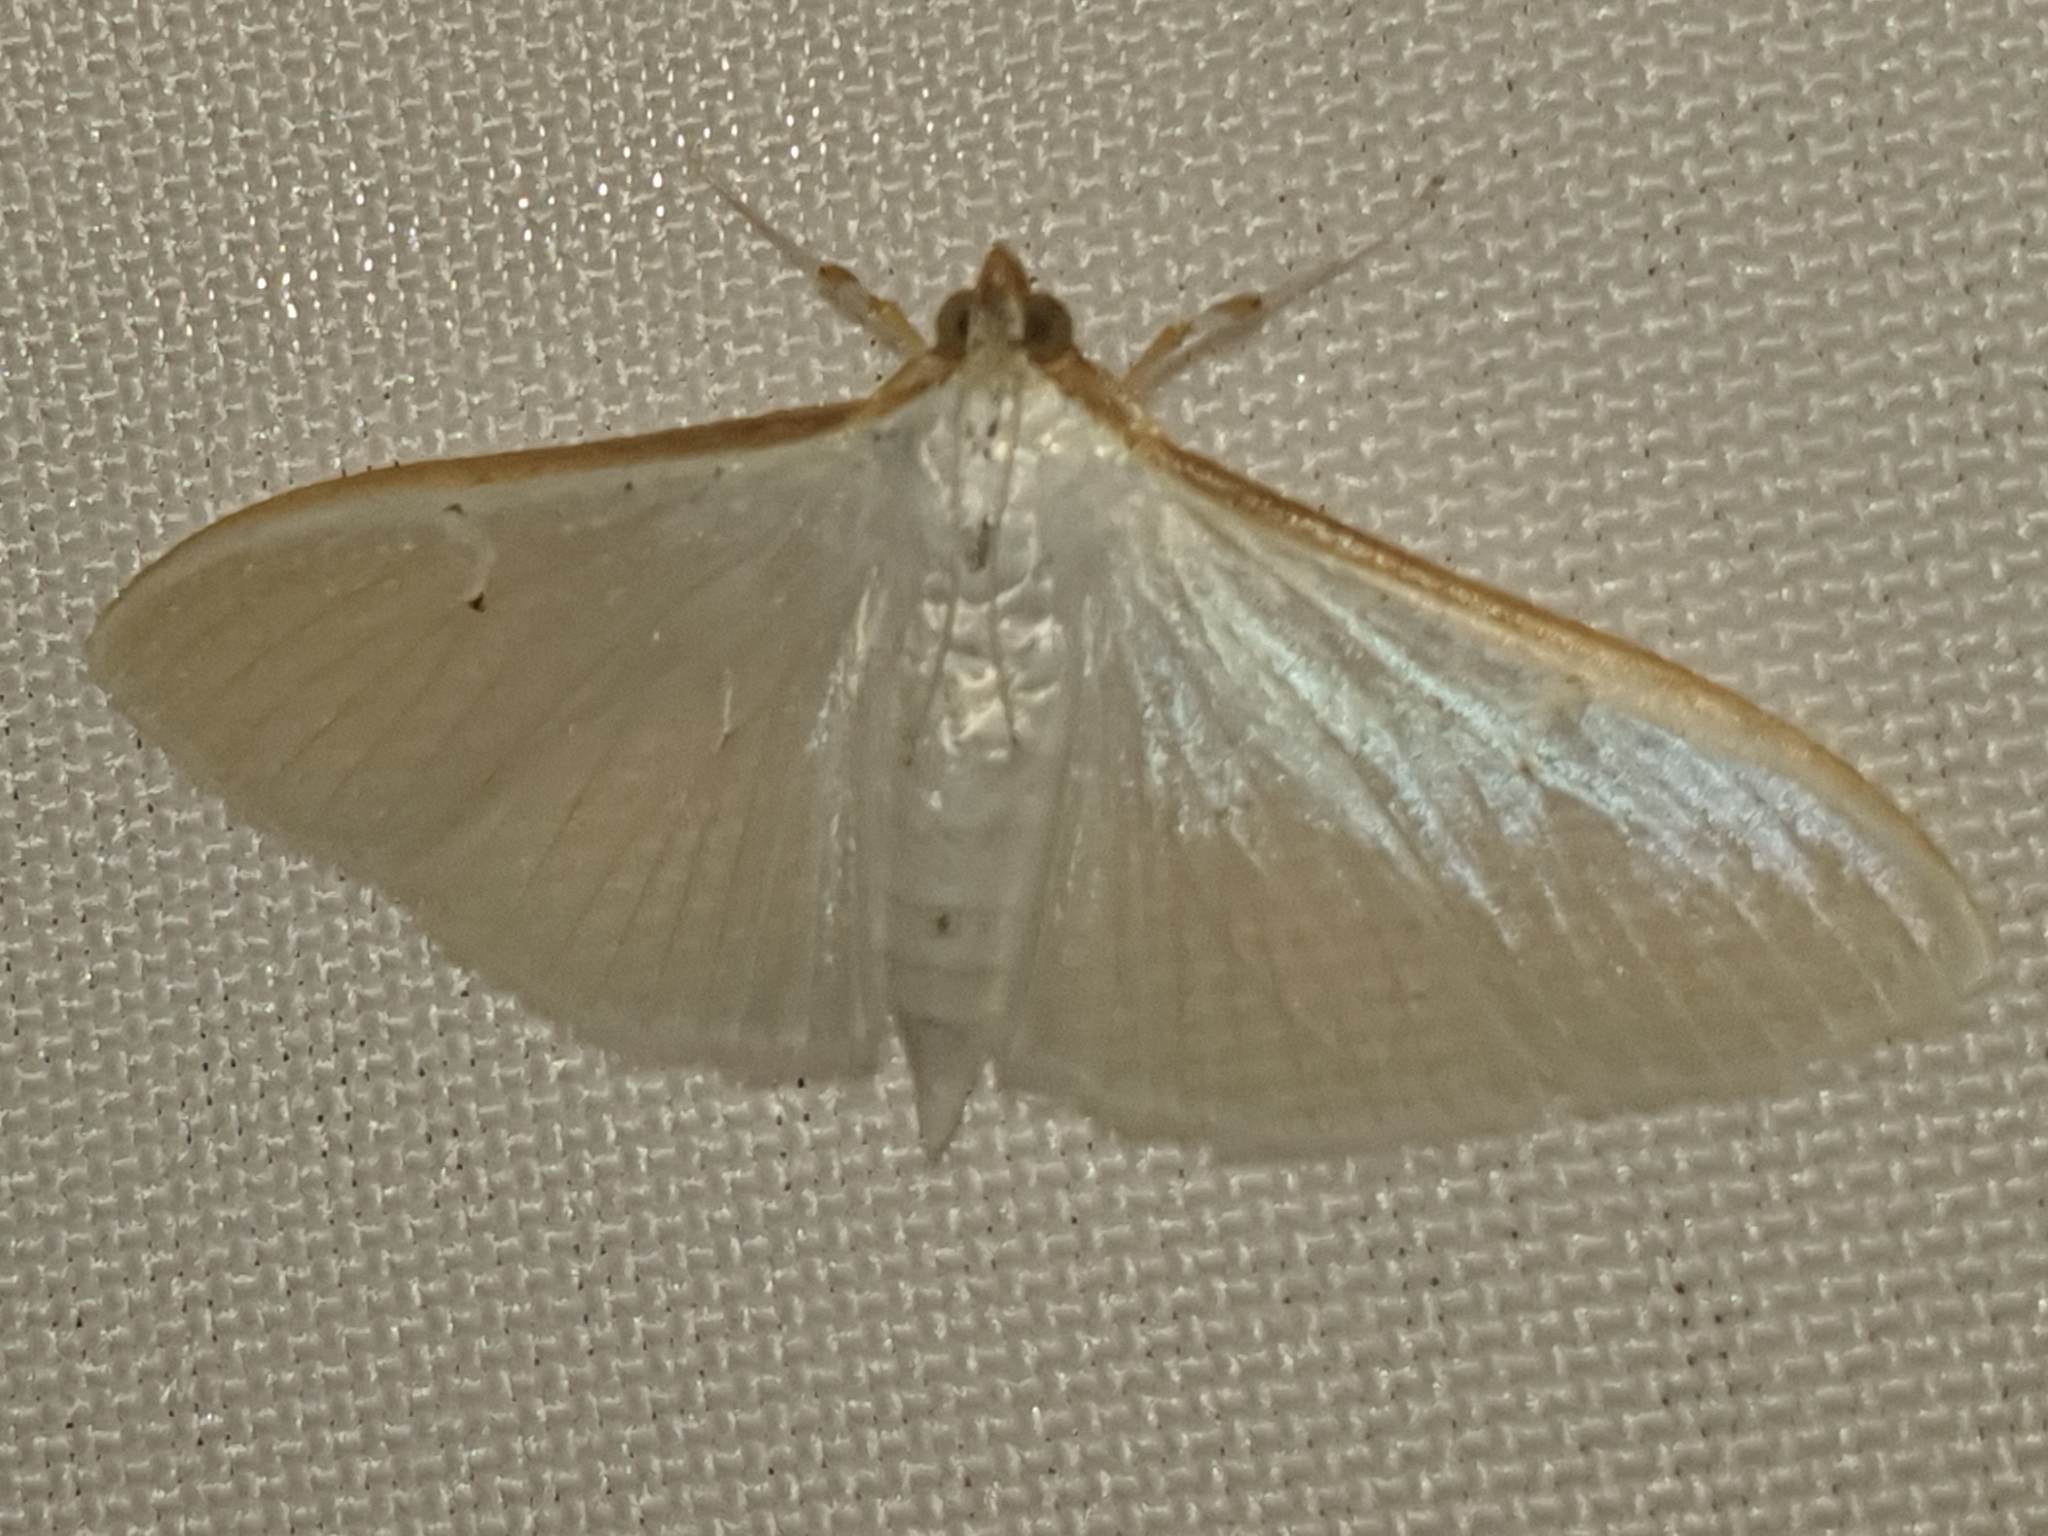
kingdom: Animalia
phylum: Arthropoda
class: Insecta
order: Lepidoptera
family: Crambidae
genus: Palpita
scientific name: Palpita vitrealis
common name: Olive-tree pearl
